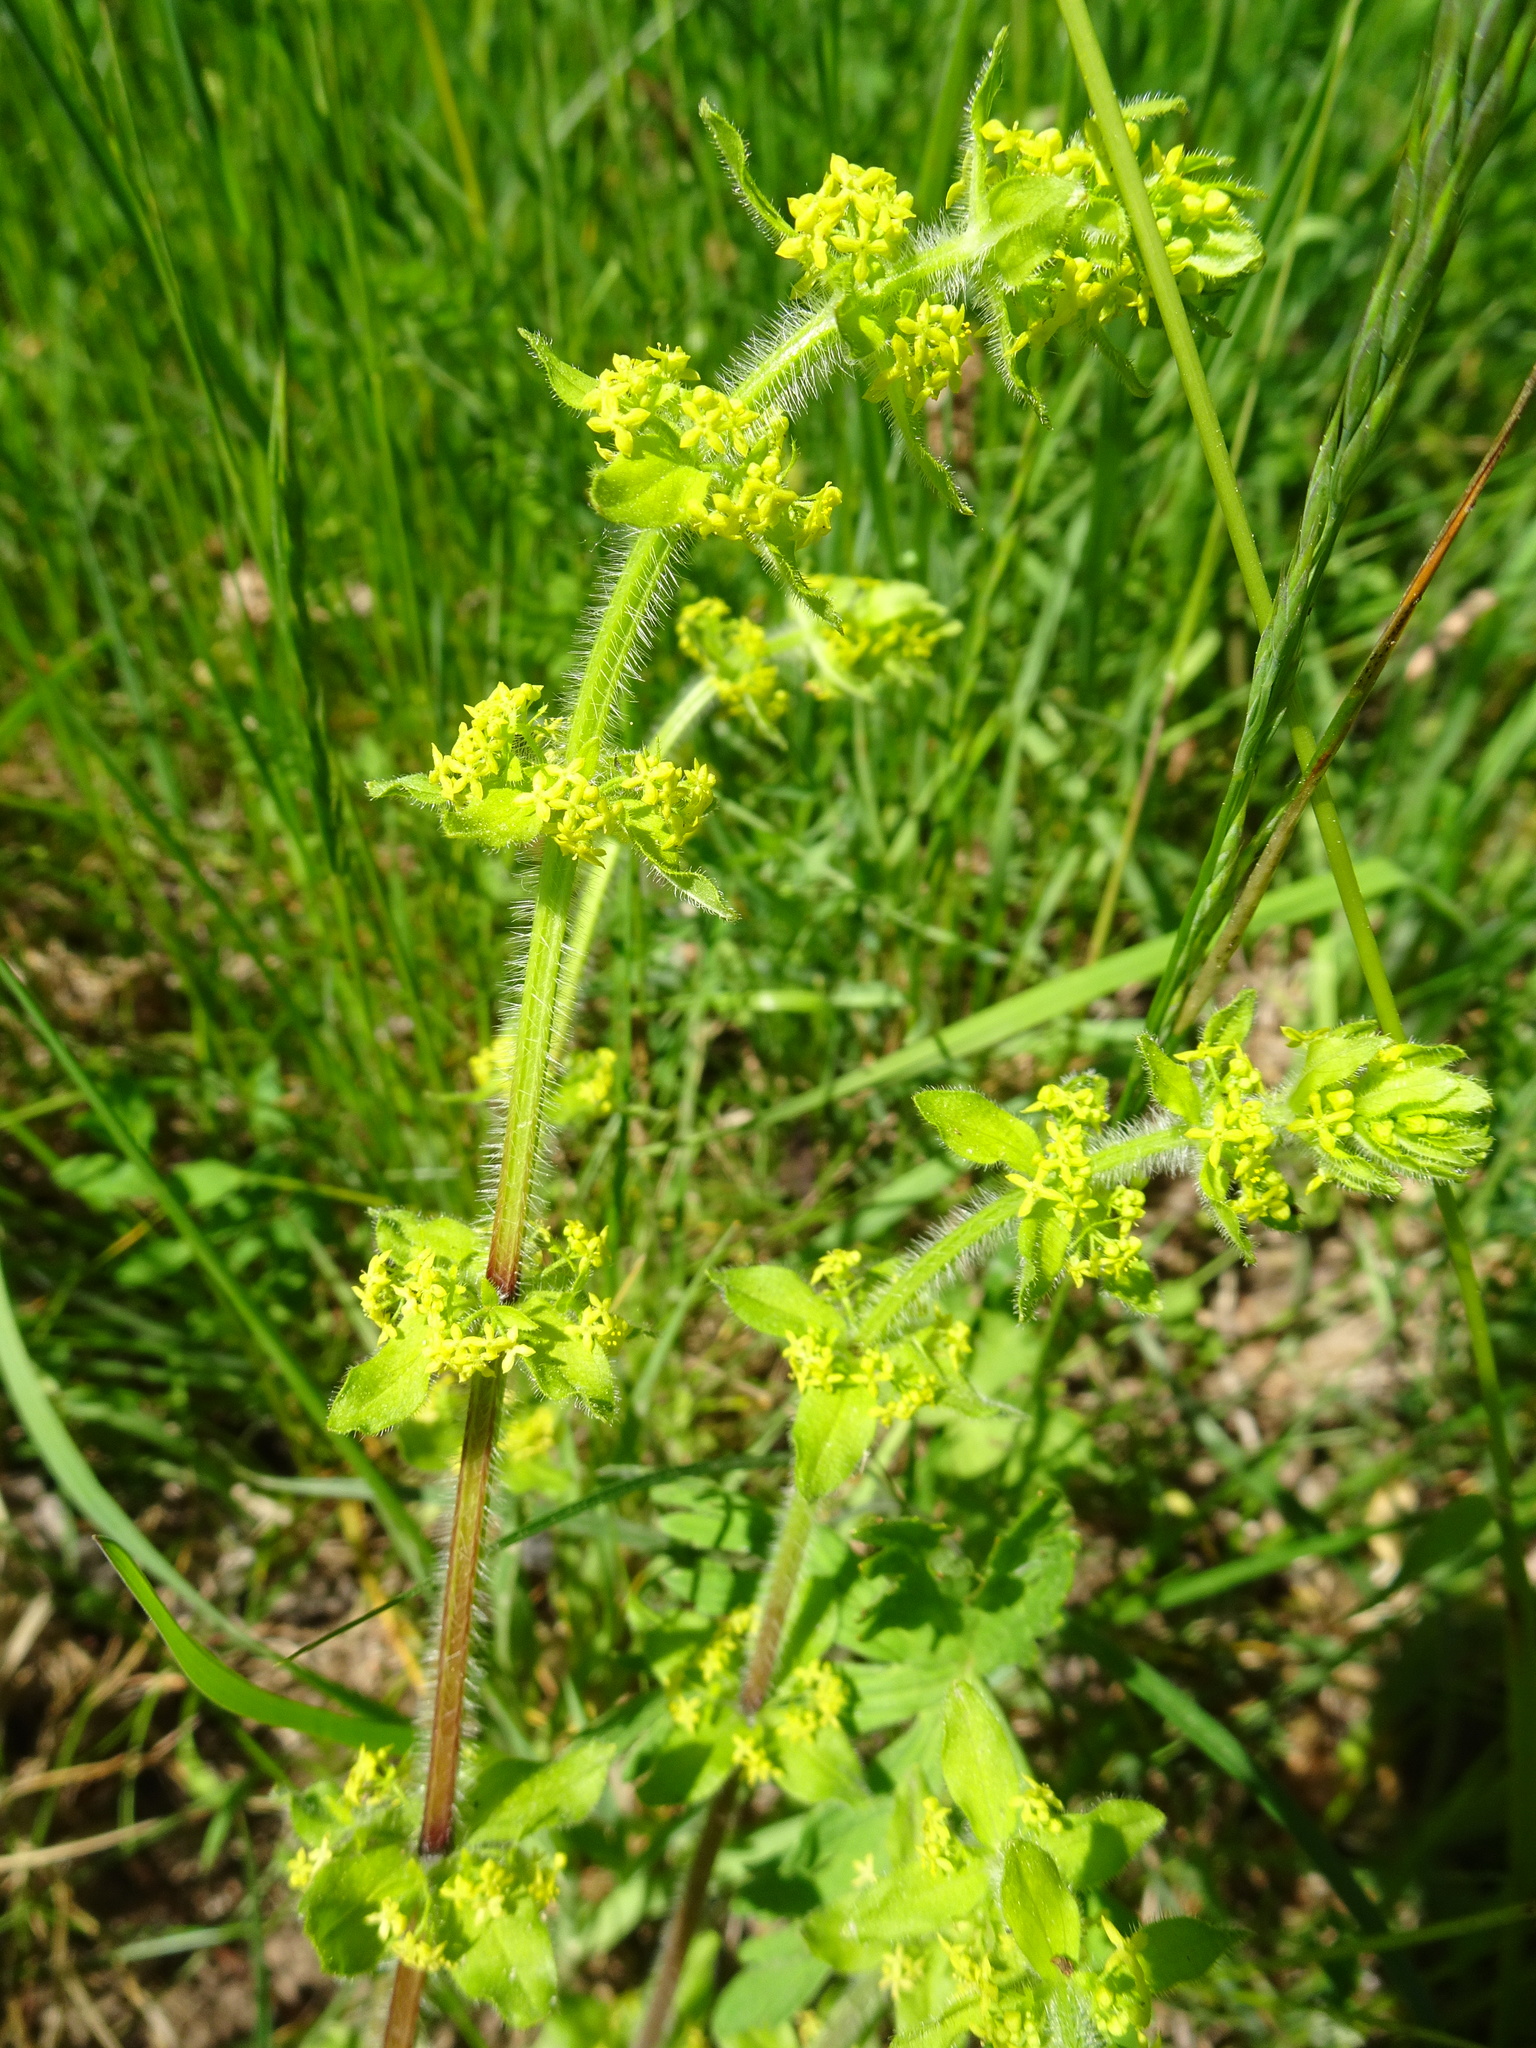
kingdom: Plantae
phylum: Tracheophyta
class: Magnoliopsida
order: Gentianales
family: Rubiaceae
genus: Cruciata
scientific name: Cruciata laevipes
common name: Crosswort
